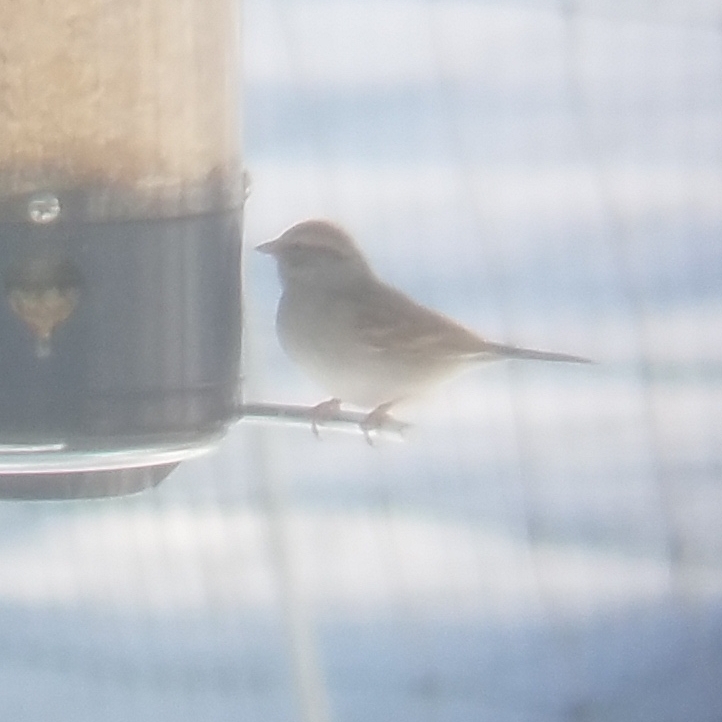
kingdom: Animalia
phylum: Chordata
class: Aves
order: Passeriformes
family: Passerellidae
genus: Spizella
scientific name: Spizella passerina
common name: Chipping sparrow
